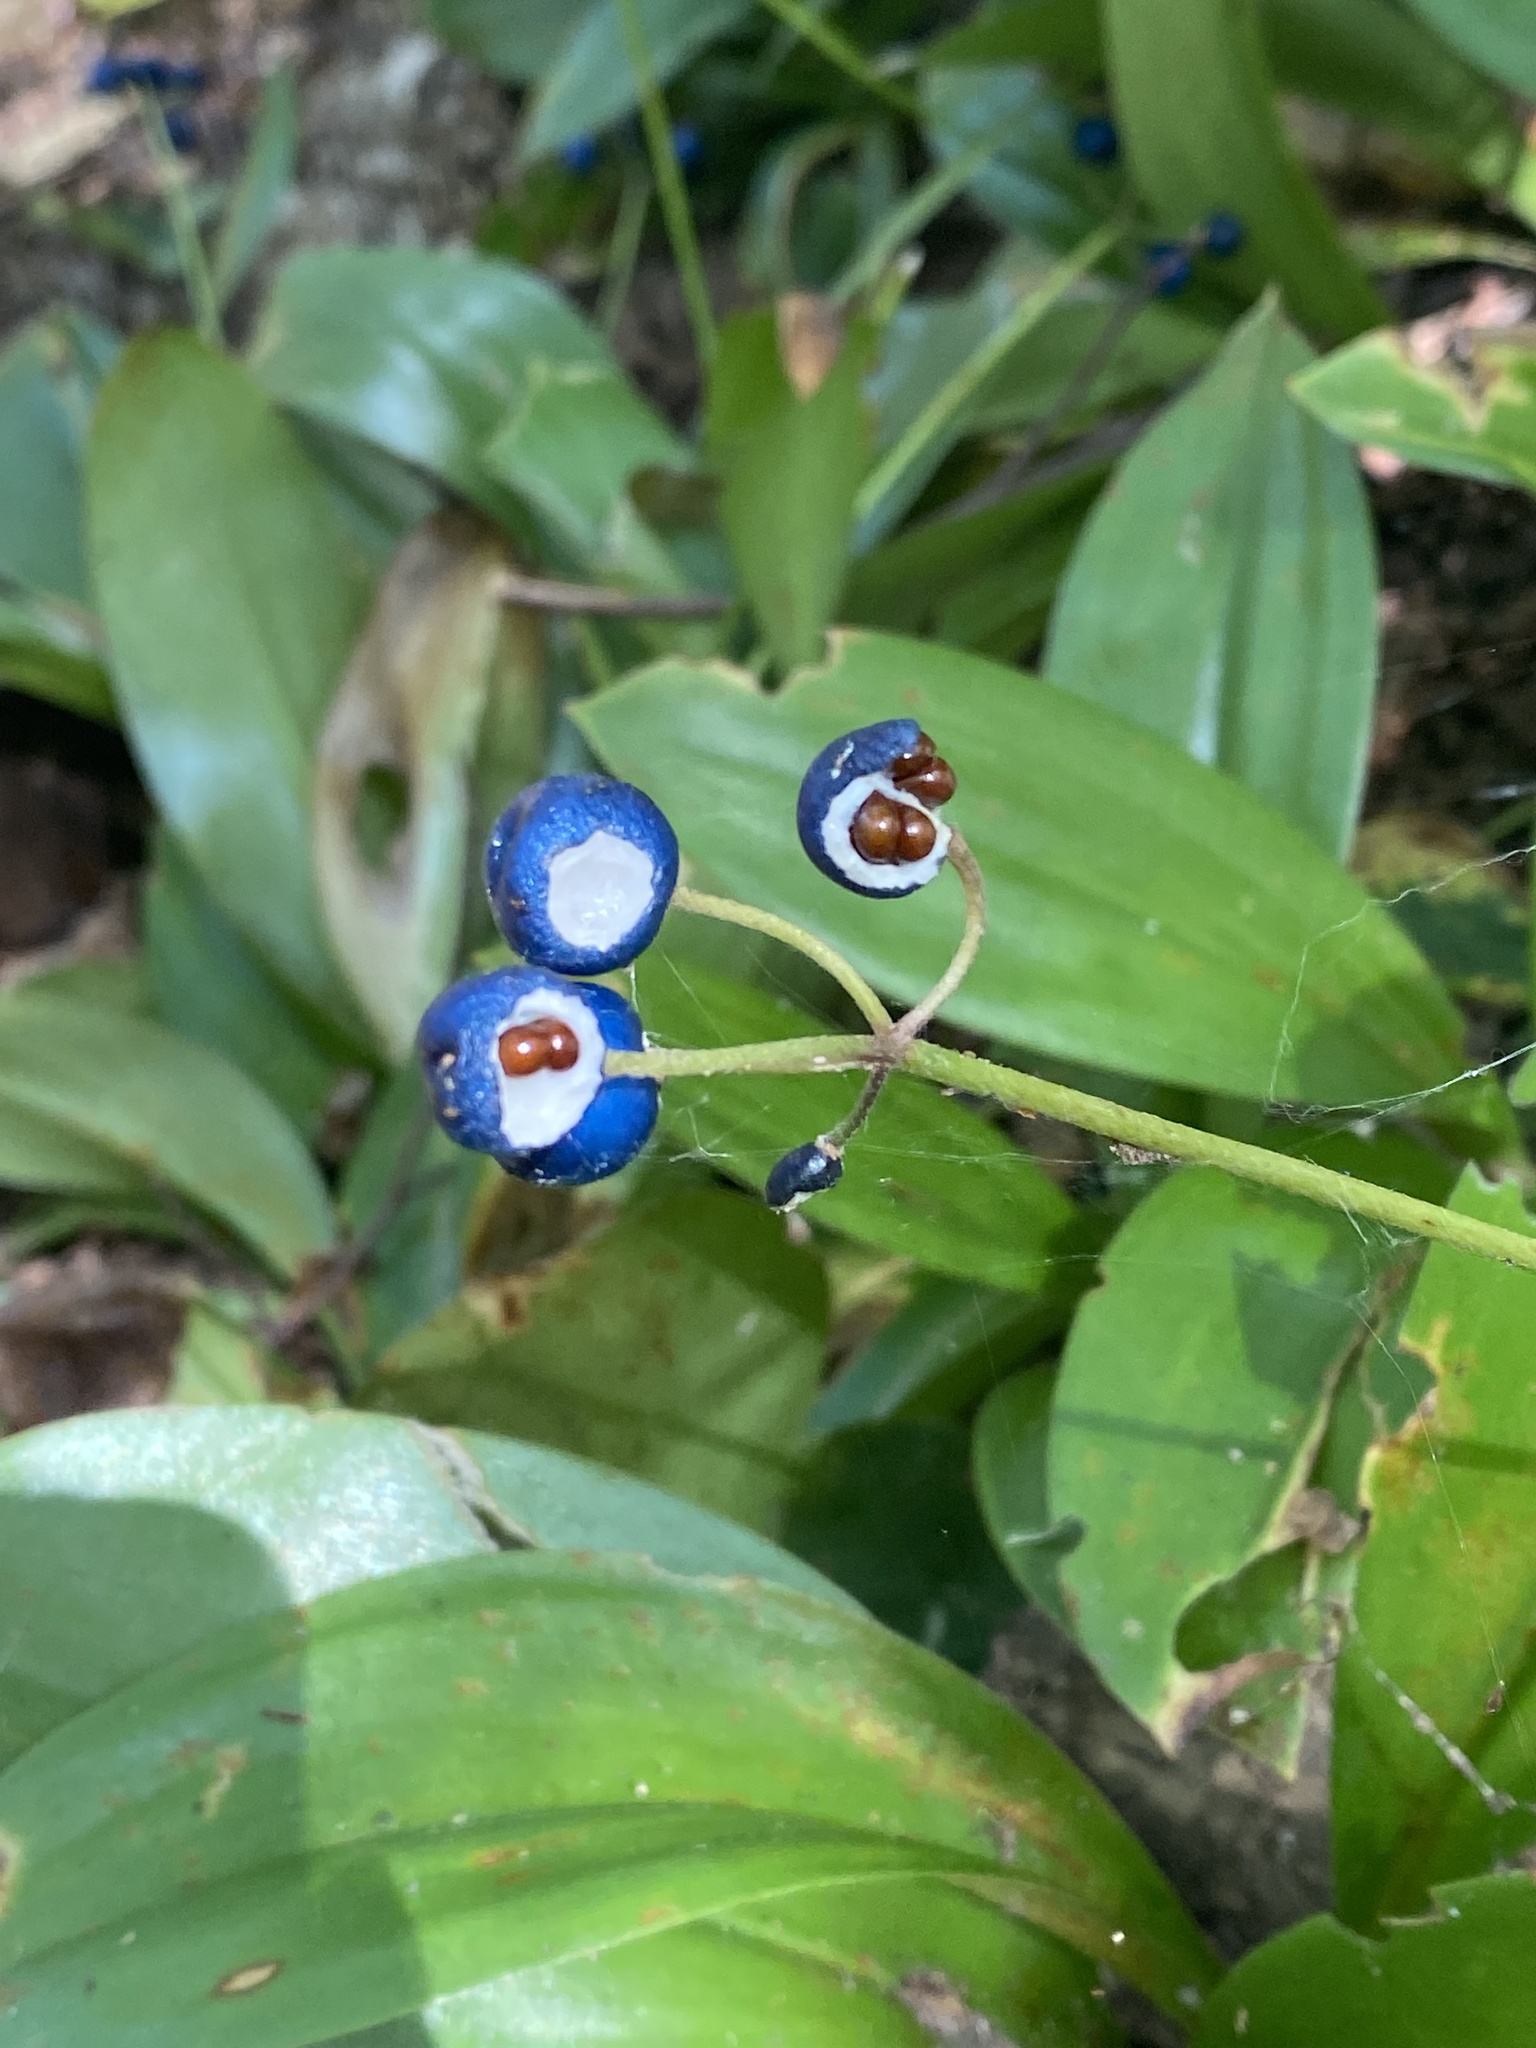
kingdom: Plantae
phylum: Tracheophyta
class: Liliopsida
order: Liliales
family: Liliaceae
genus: Clintonia
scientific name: Clintonia borealis
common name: Yellow clintonia
